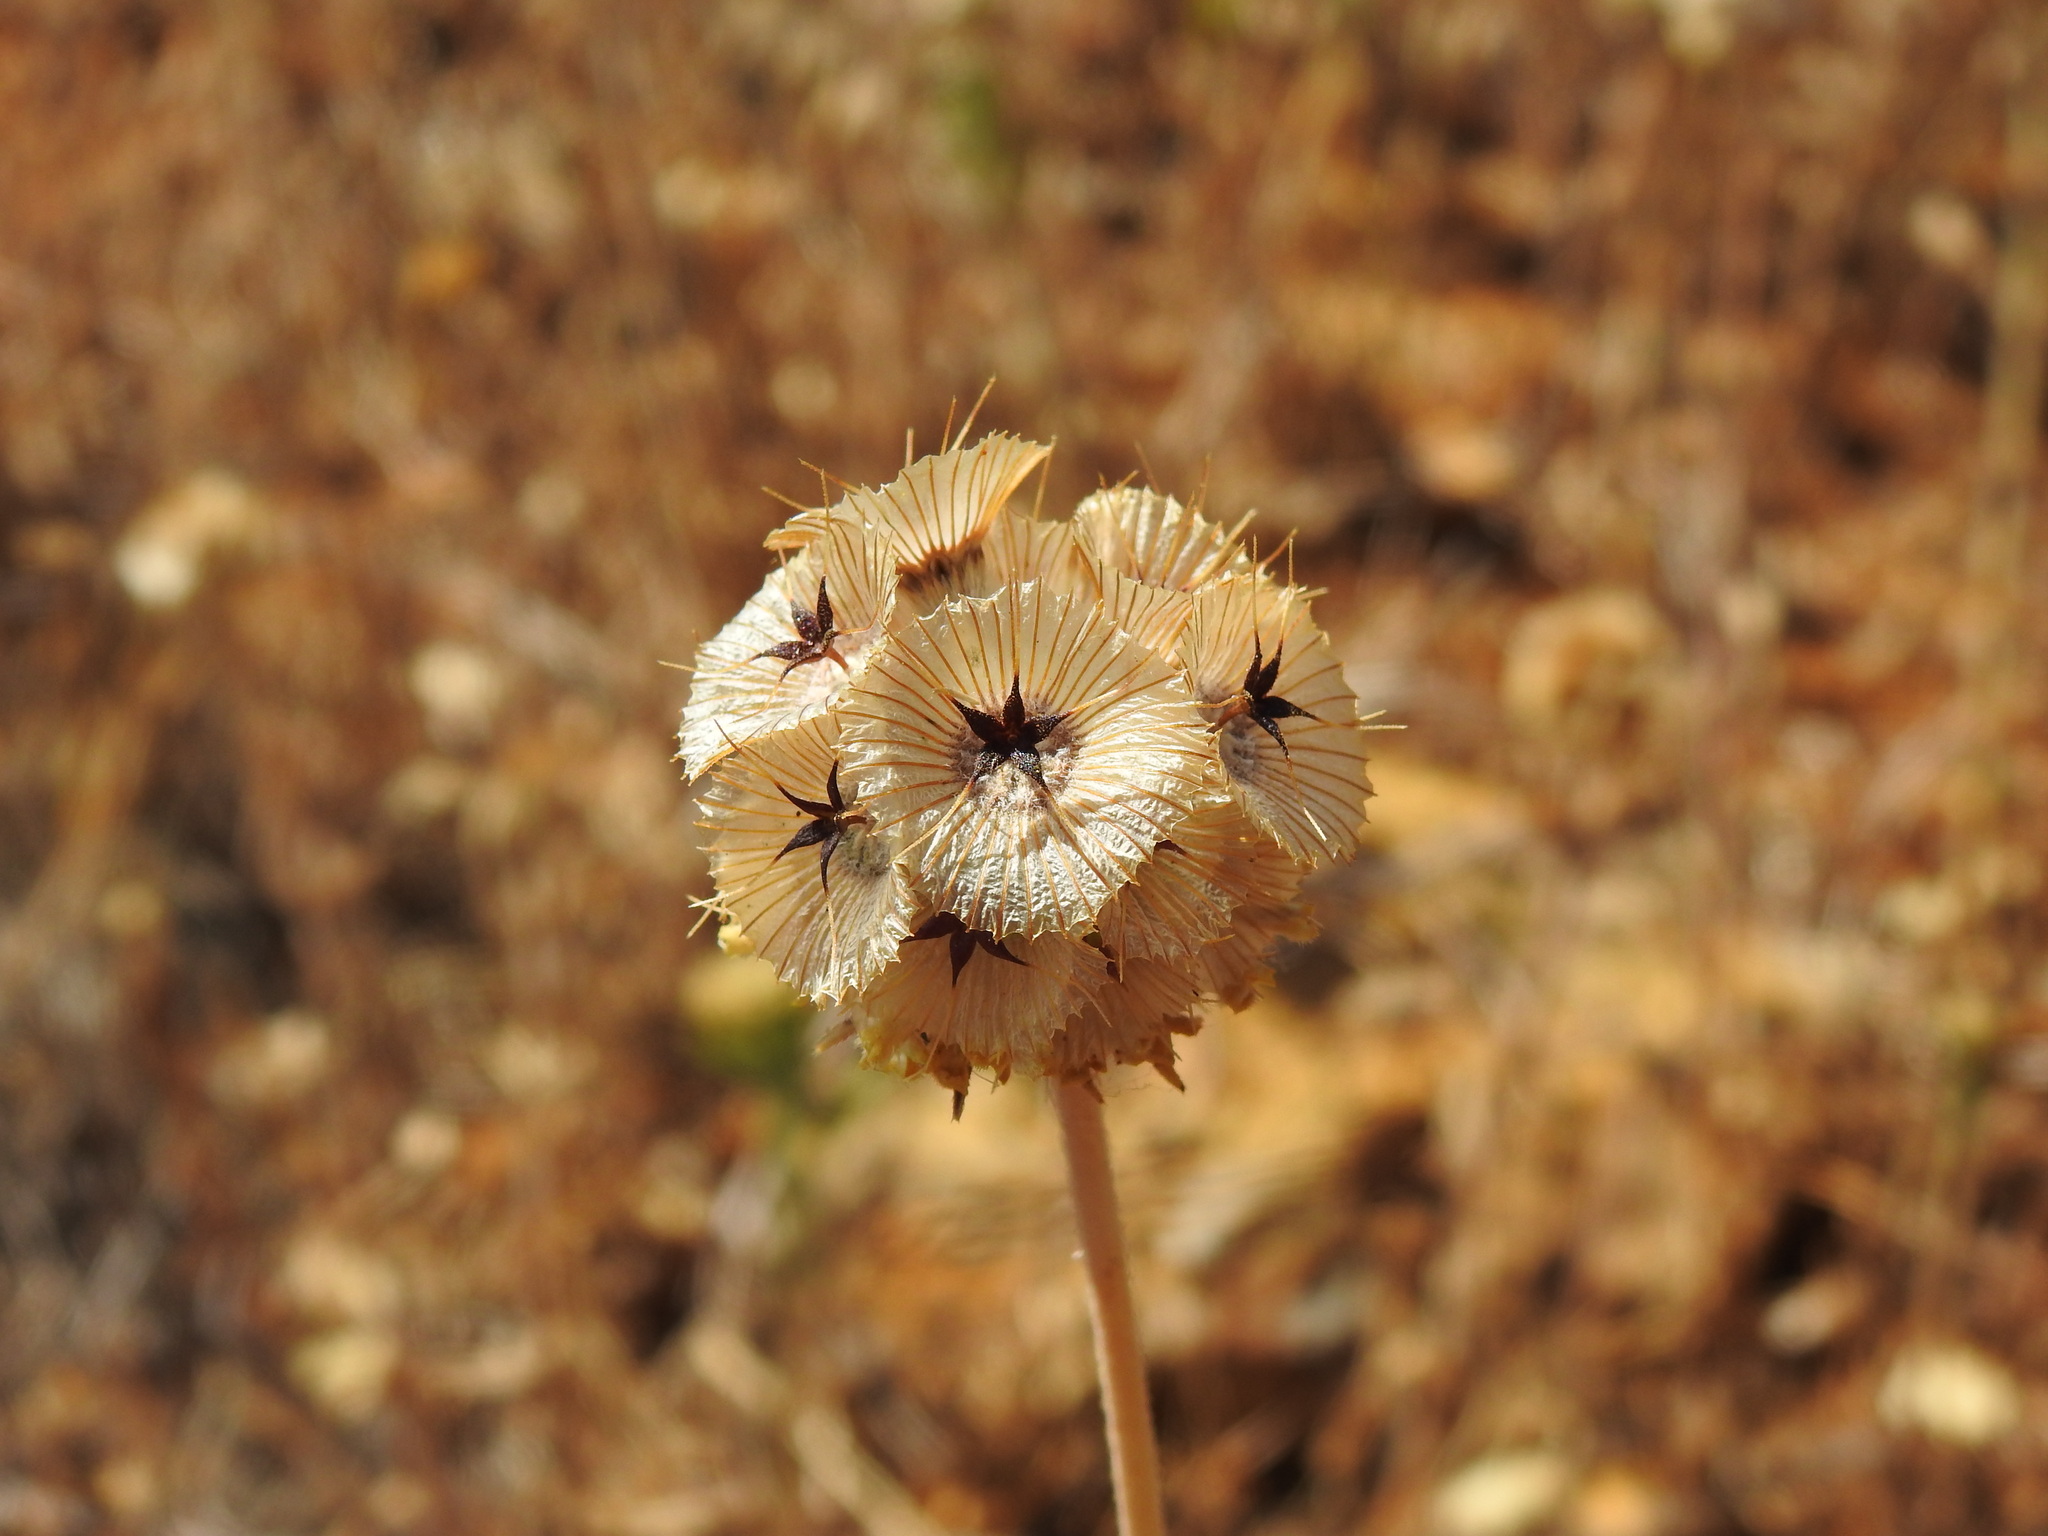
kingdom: Plantae
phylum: Tracheophyta
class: Magnoliopsida
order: Dipsacales
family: Caprifoliaceae
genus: Lomelosia
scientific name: Lomelosia stellata
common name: Teasel
